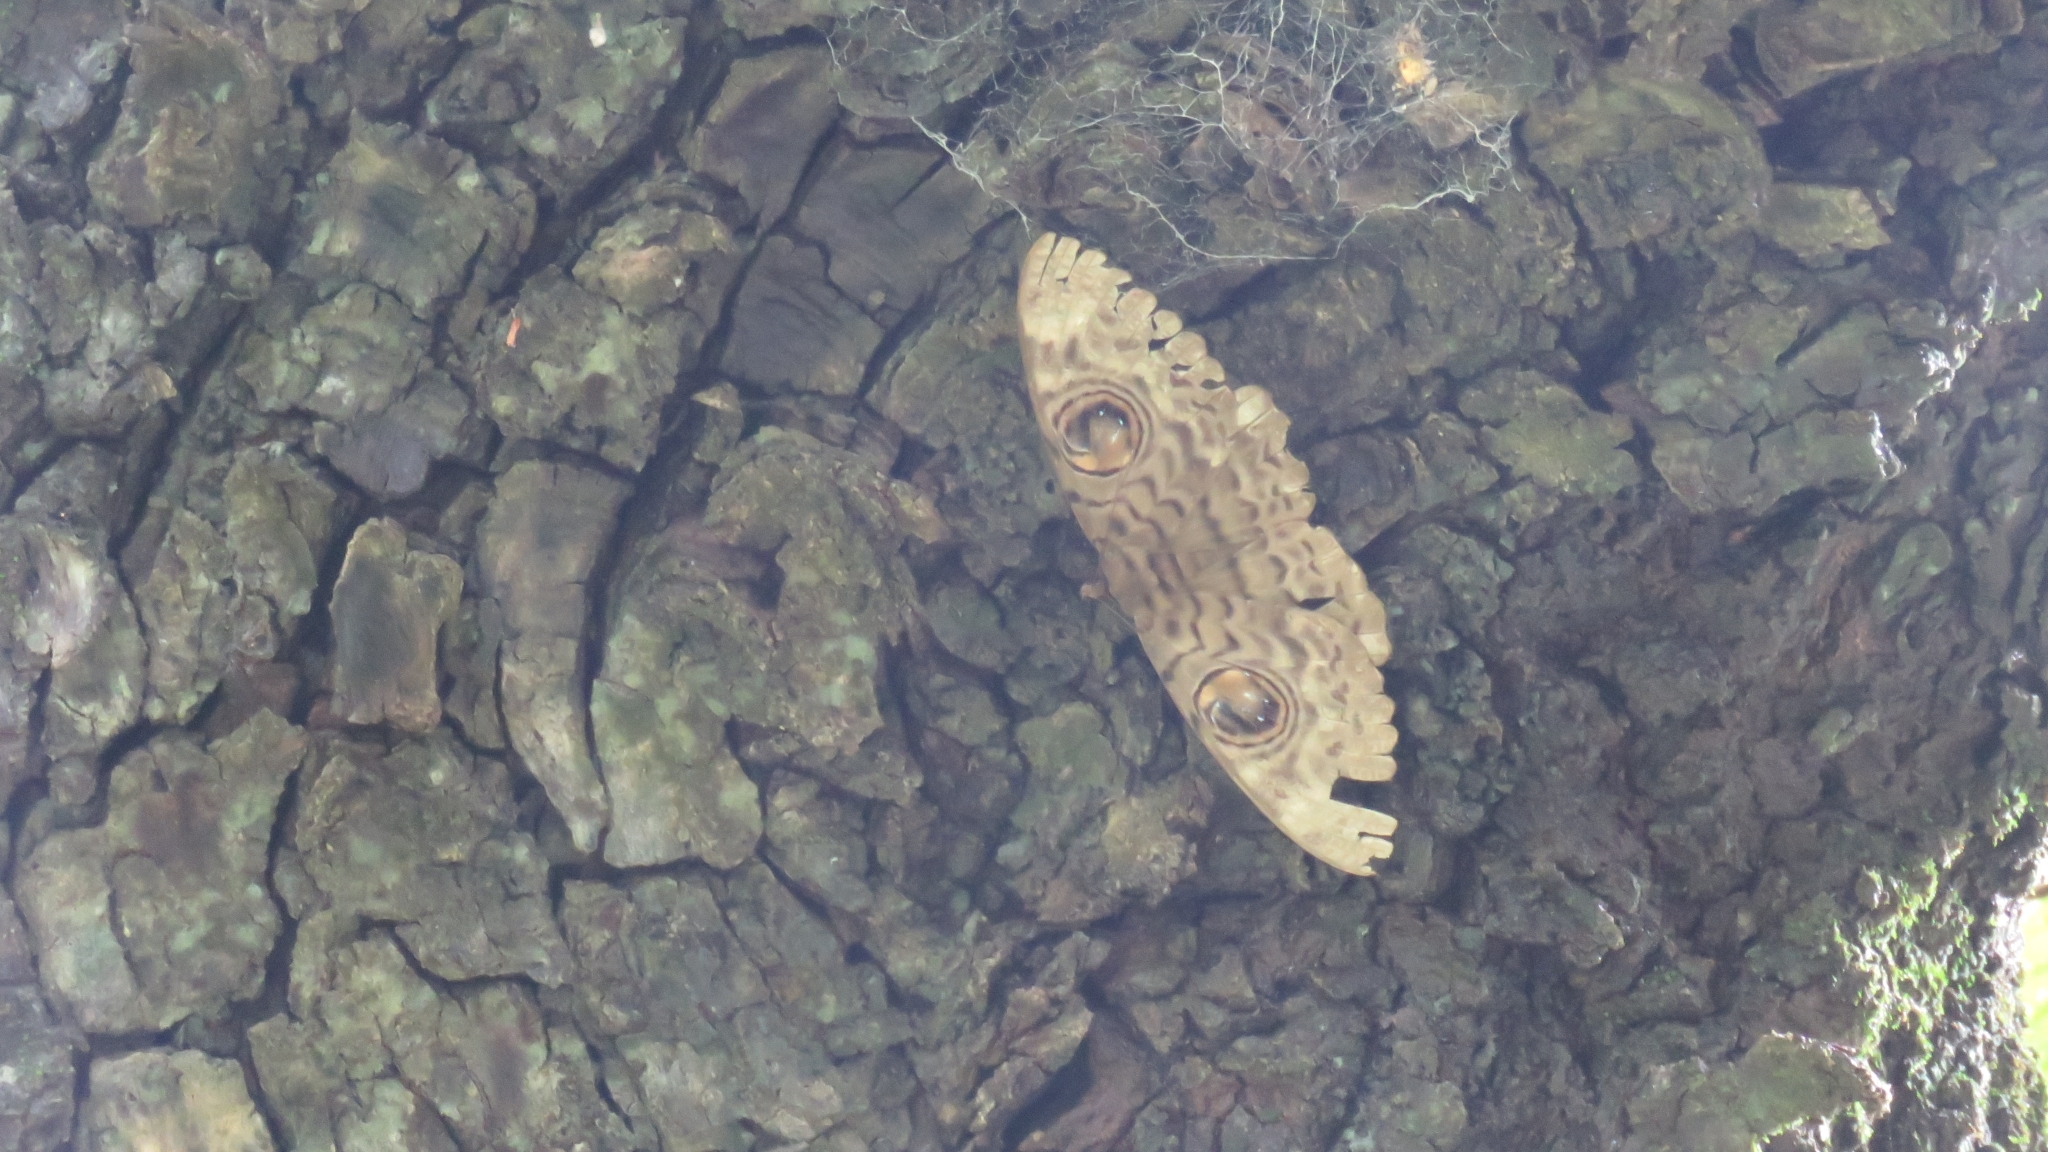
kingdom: Animalia
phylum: Arthropoda
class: Insecta
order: Lepidoptera
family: Erebidae
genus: Erebus
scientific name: Erebus macrops
